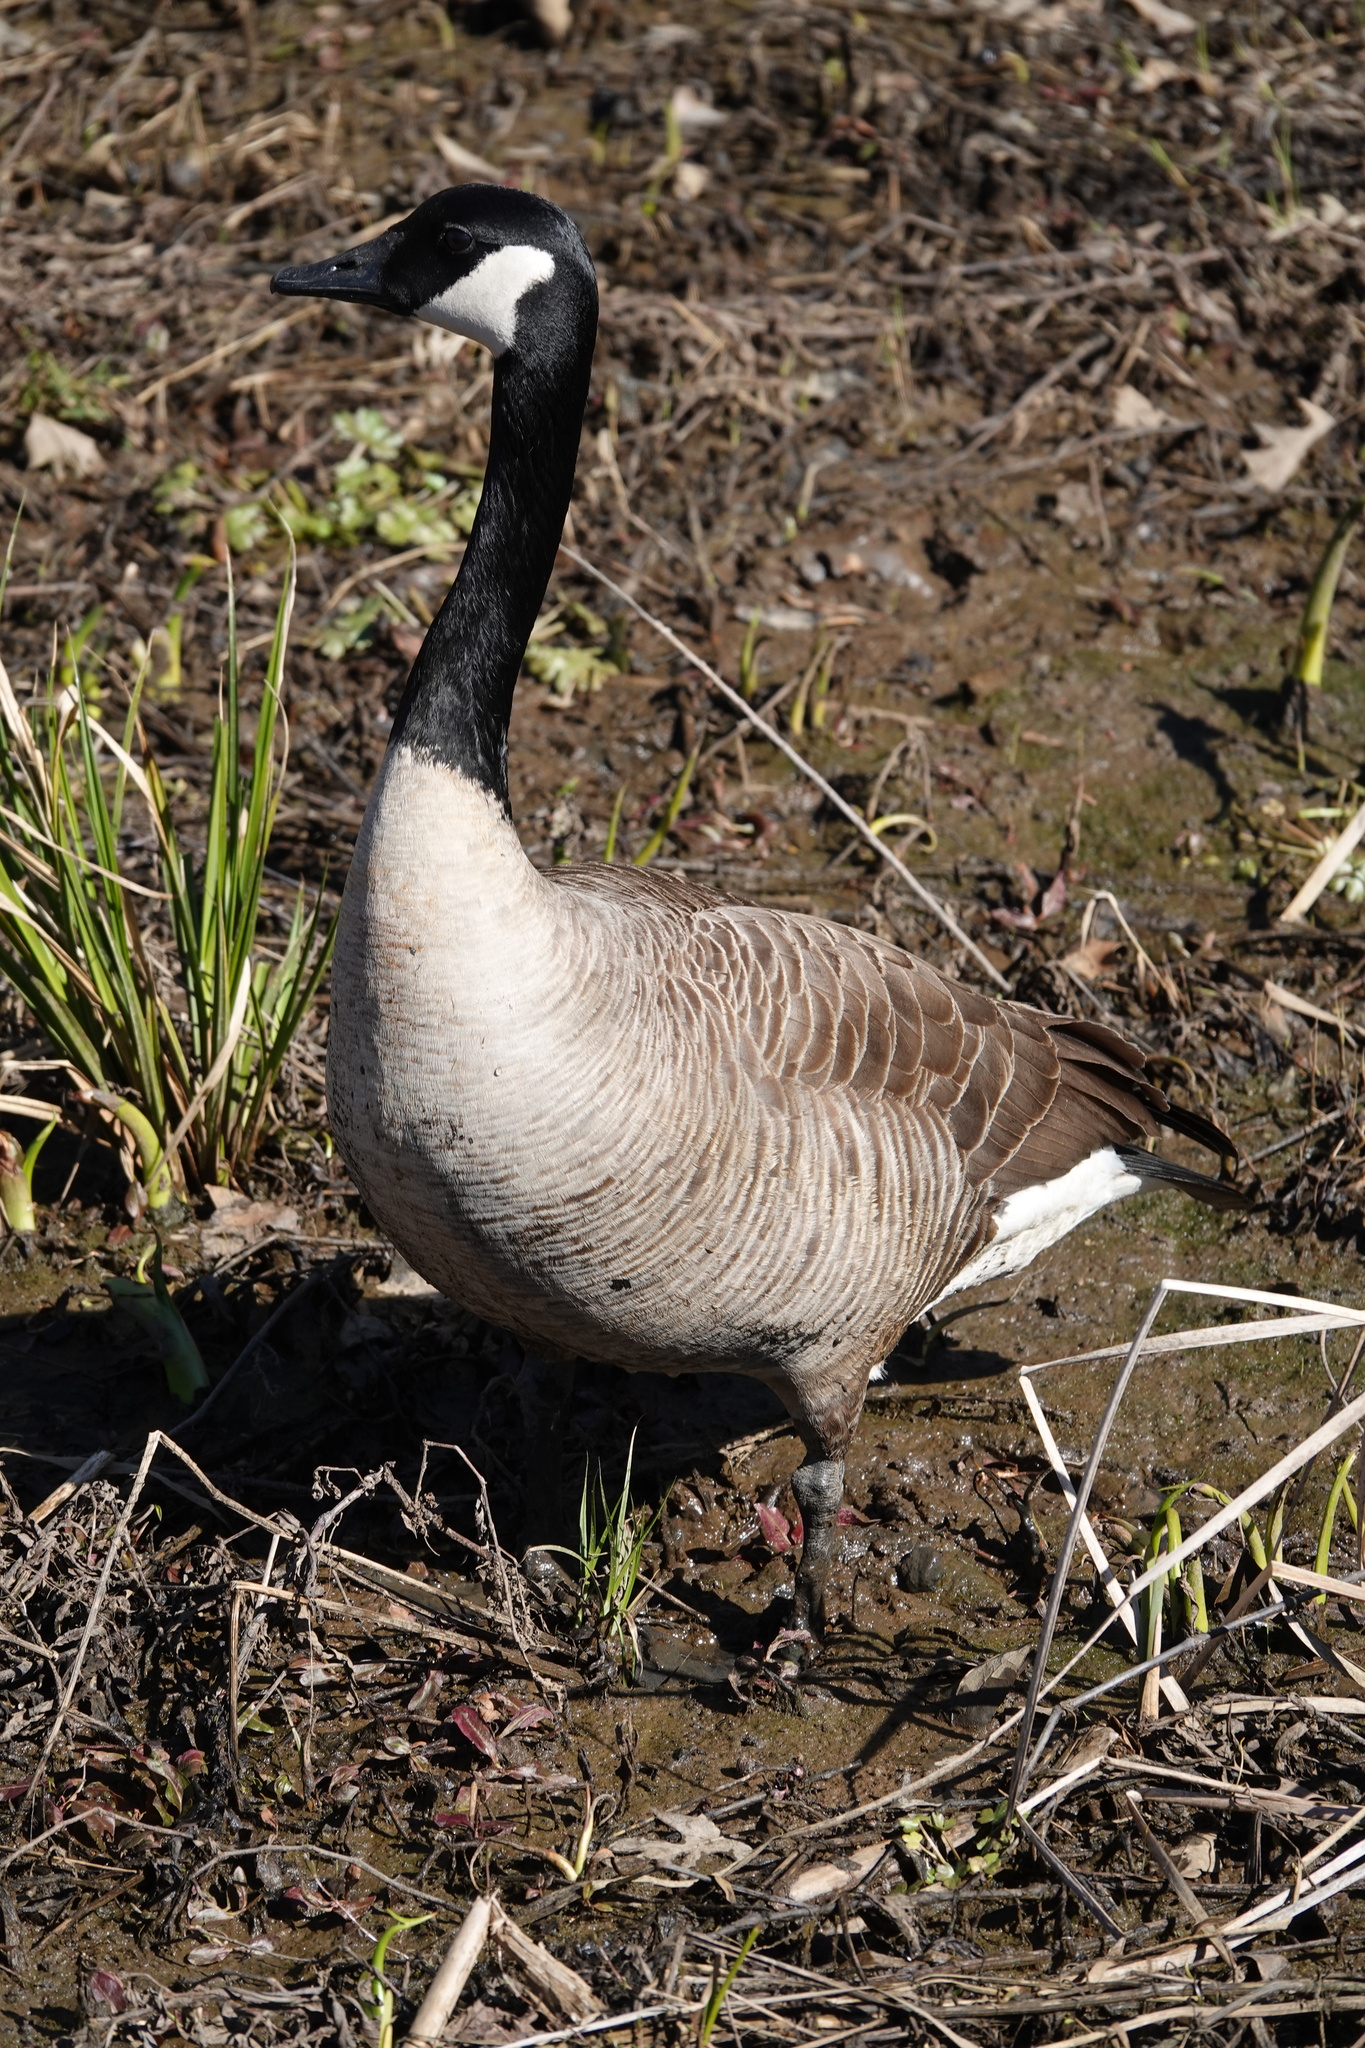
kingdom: Animalia
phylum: Chordata
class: Aves
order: Anseriformes
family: Anatidae
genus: Branta
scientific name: Branta canadensis
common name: Canada goose
